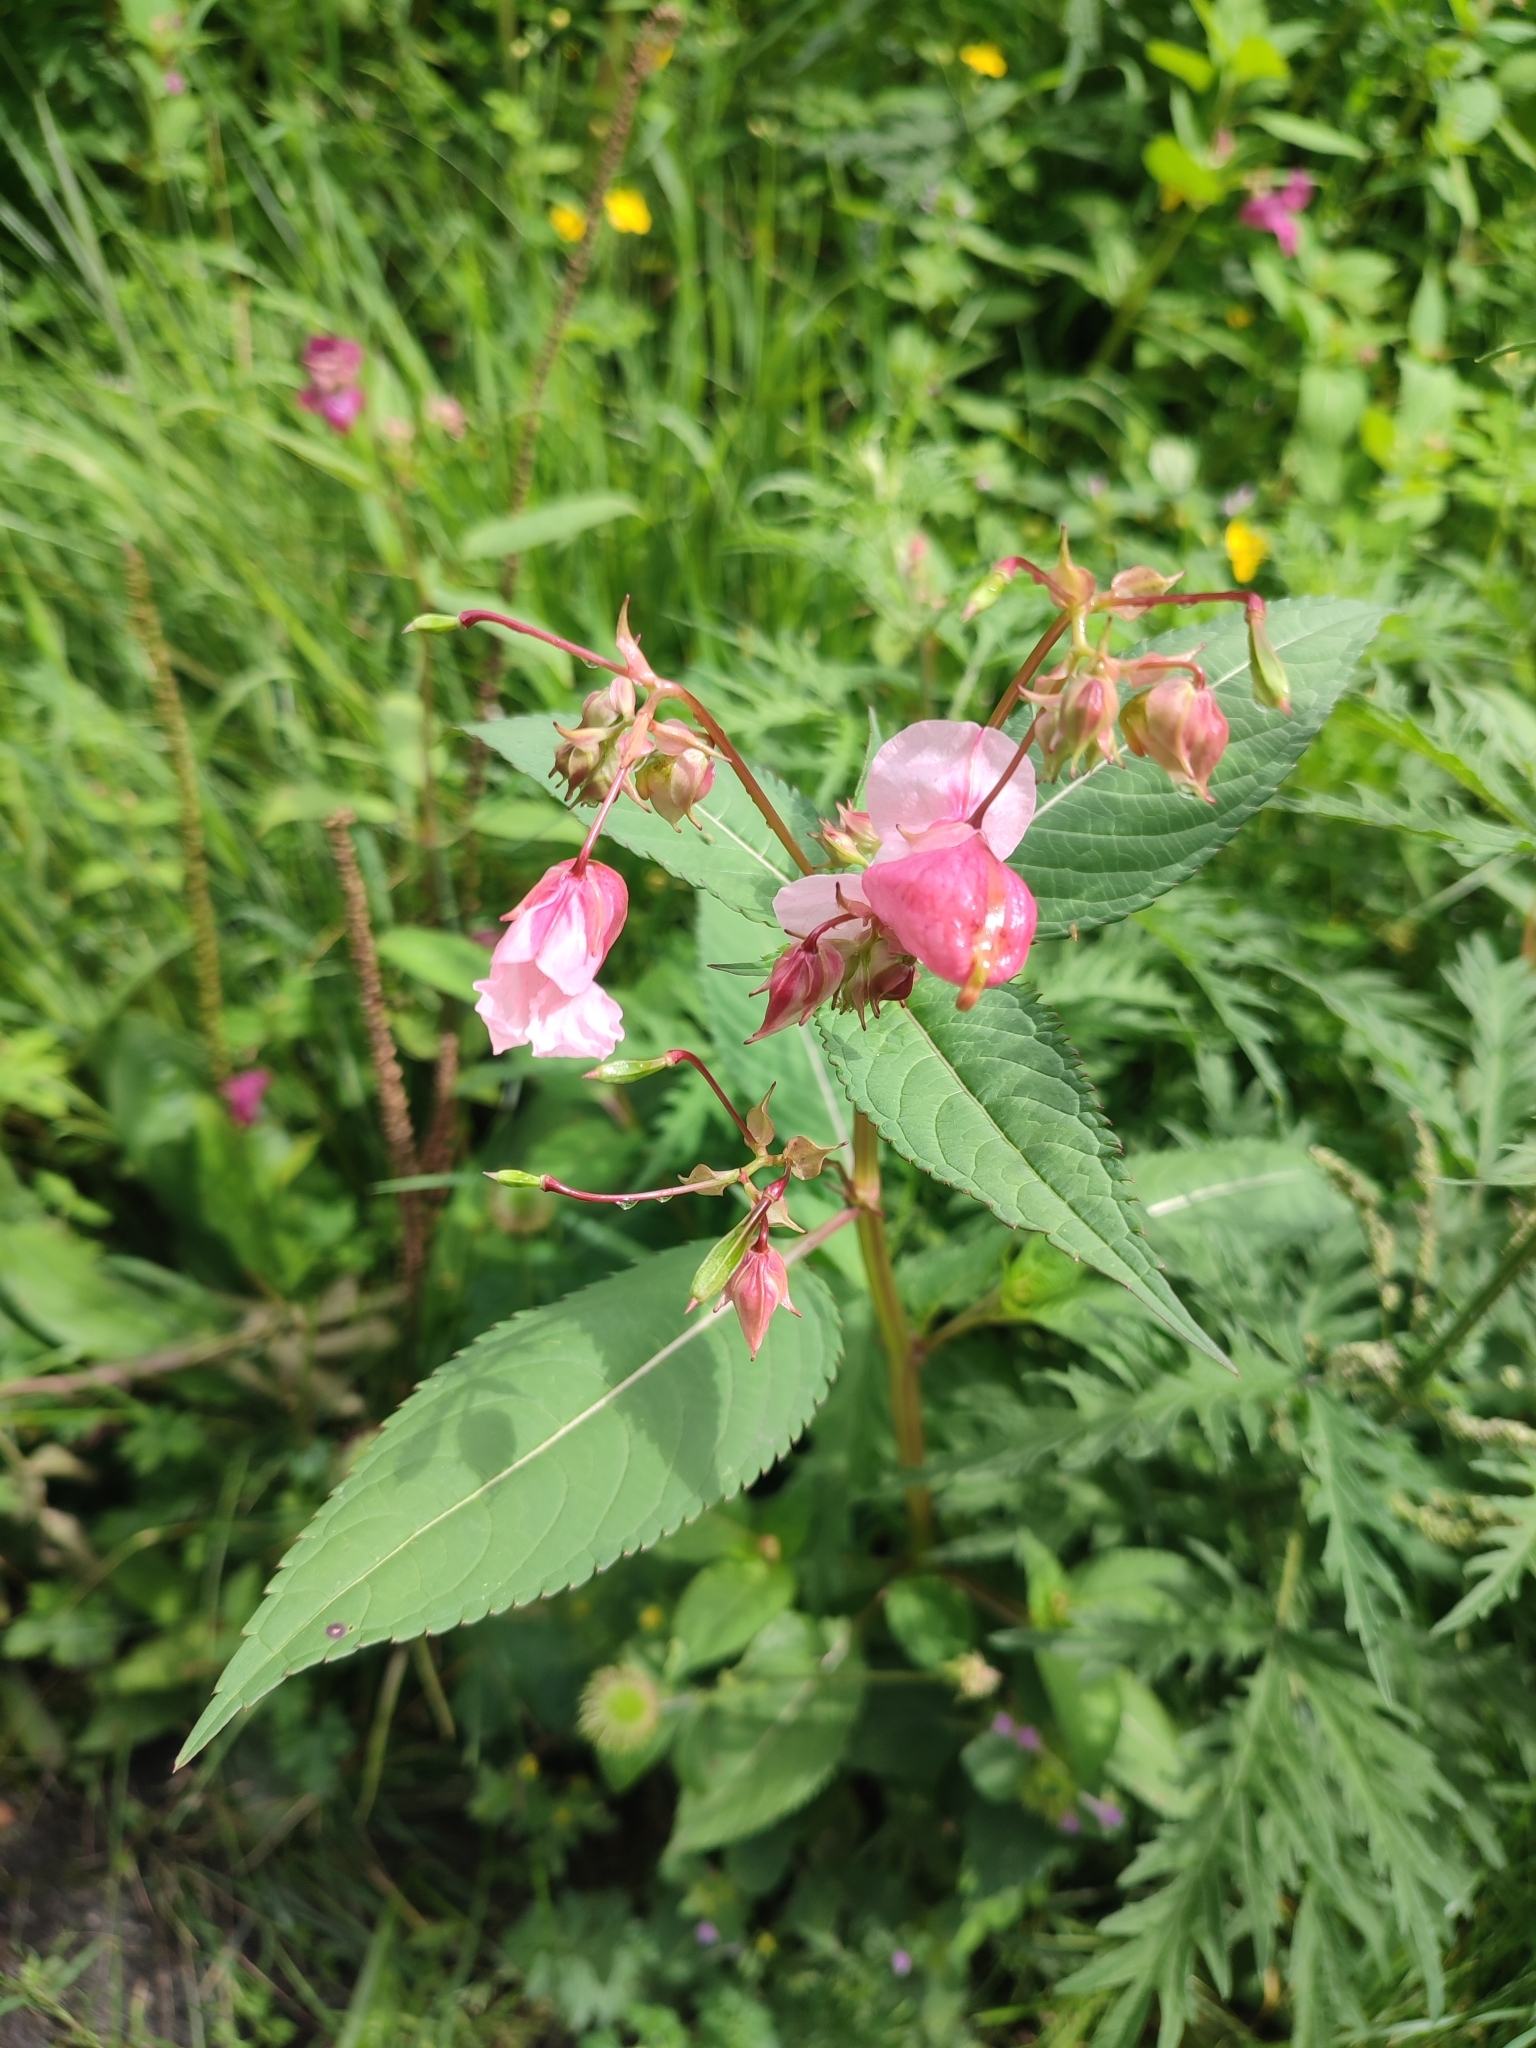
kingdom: Plantae
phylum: Tracheophyta
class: Magnoliopsida
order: Ericales
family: Balsaminaceae
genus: Impatiens
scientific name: Impatiens glandulifera
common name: Himalayan balsam
